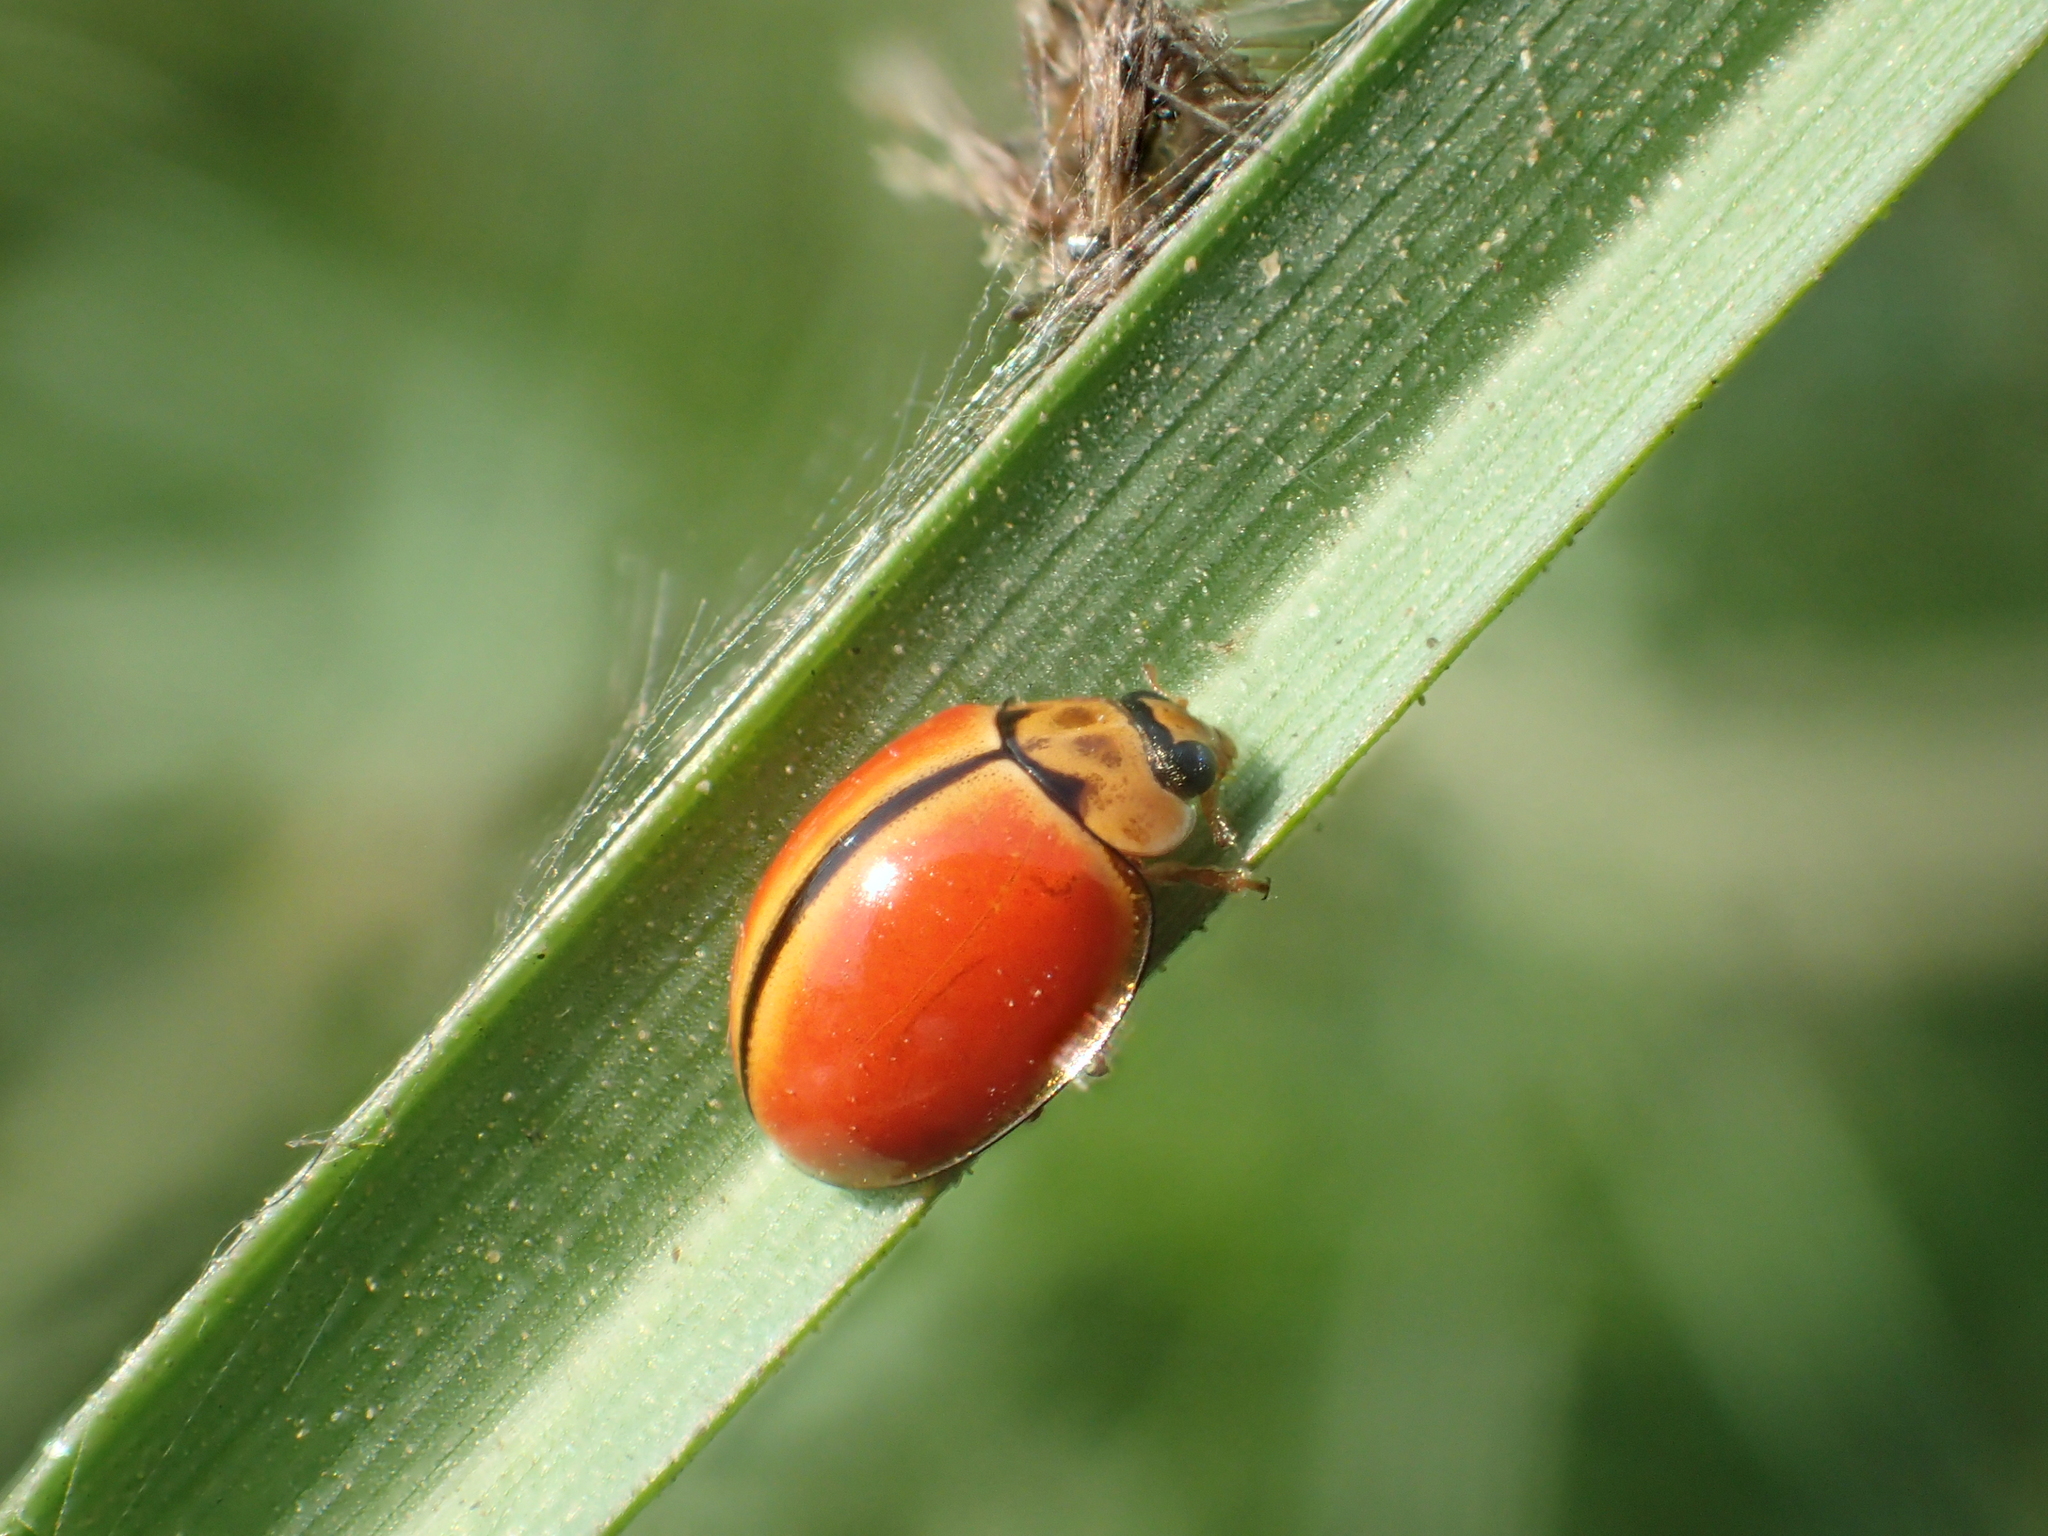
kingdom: Animalia
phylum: Arthropoda
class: Insecta
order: Coleoptera
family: Coccinellidae
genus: Micraspis
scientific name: Micraspis discolor
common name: Lady beetle
